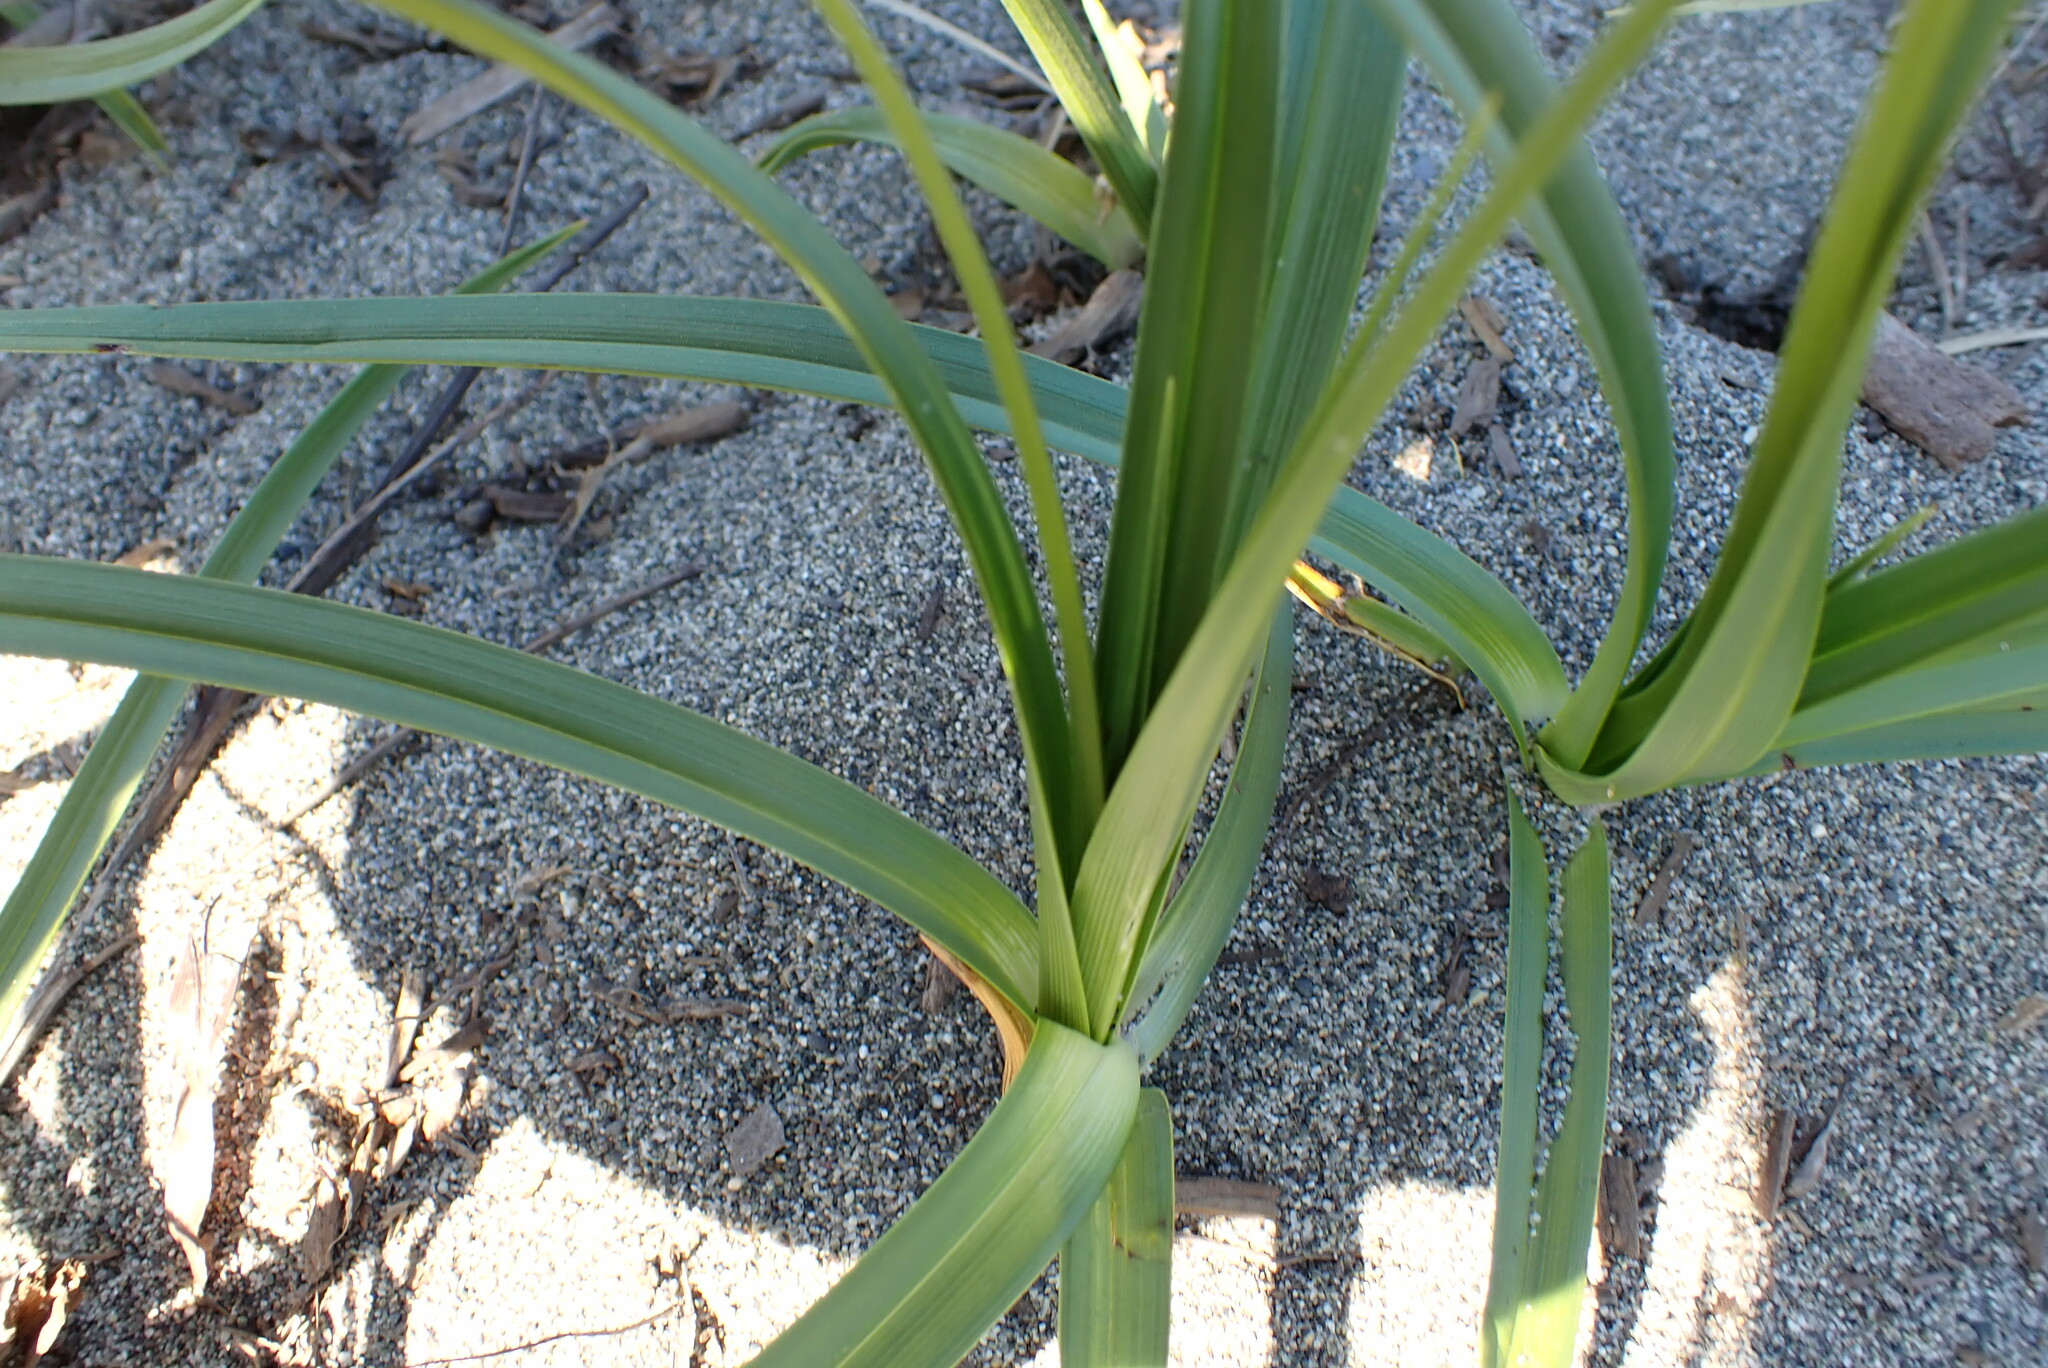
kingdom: Plantae
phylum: Tracheophyta
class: Liliopsida
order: Poales
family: Cyperaceae
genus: Carex
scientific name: Carex macrocephala
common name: Large-head sedge
